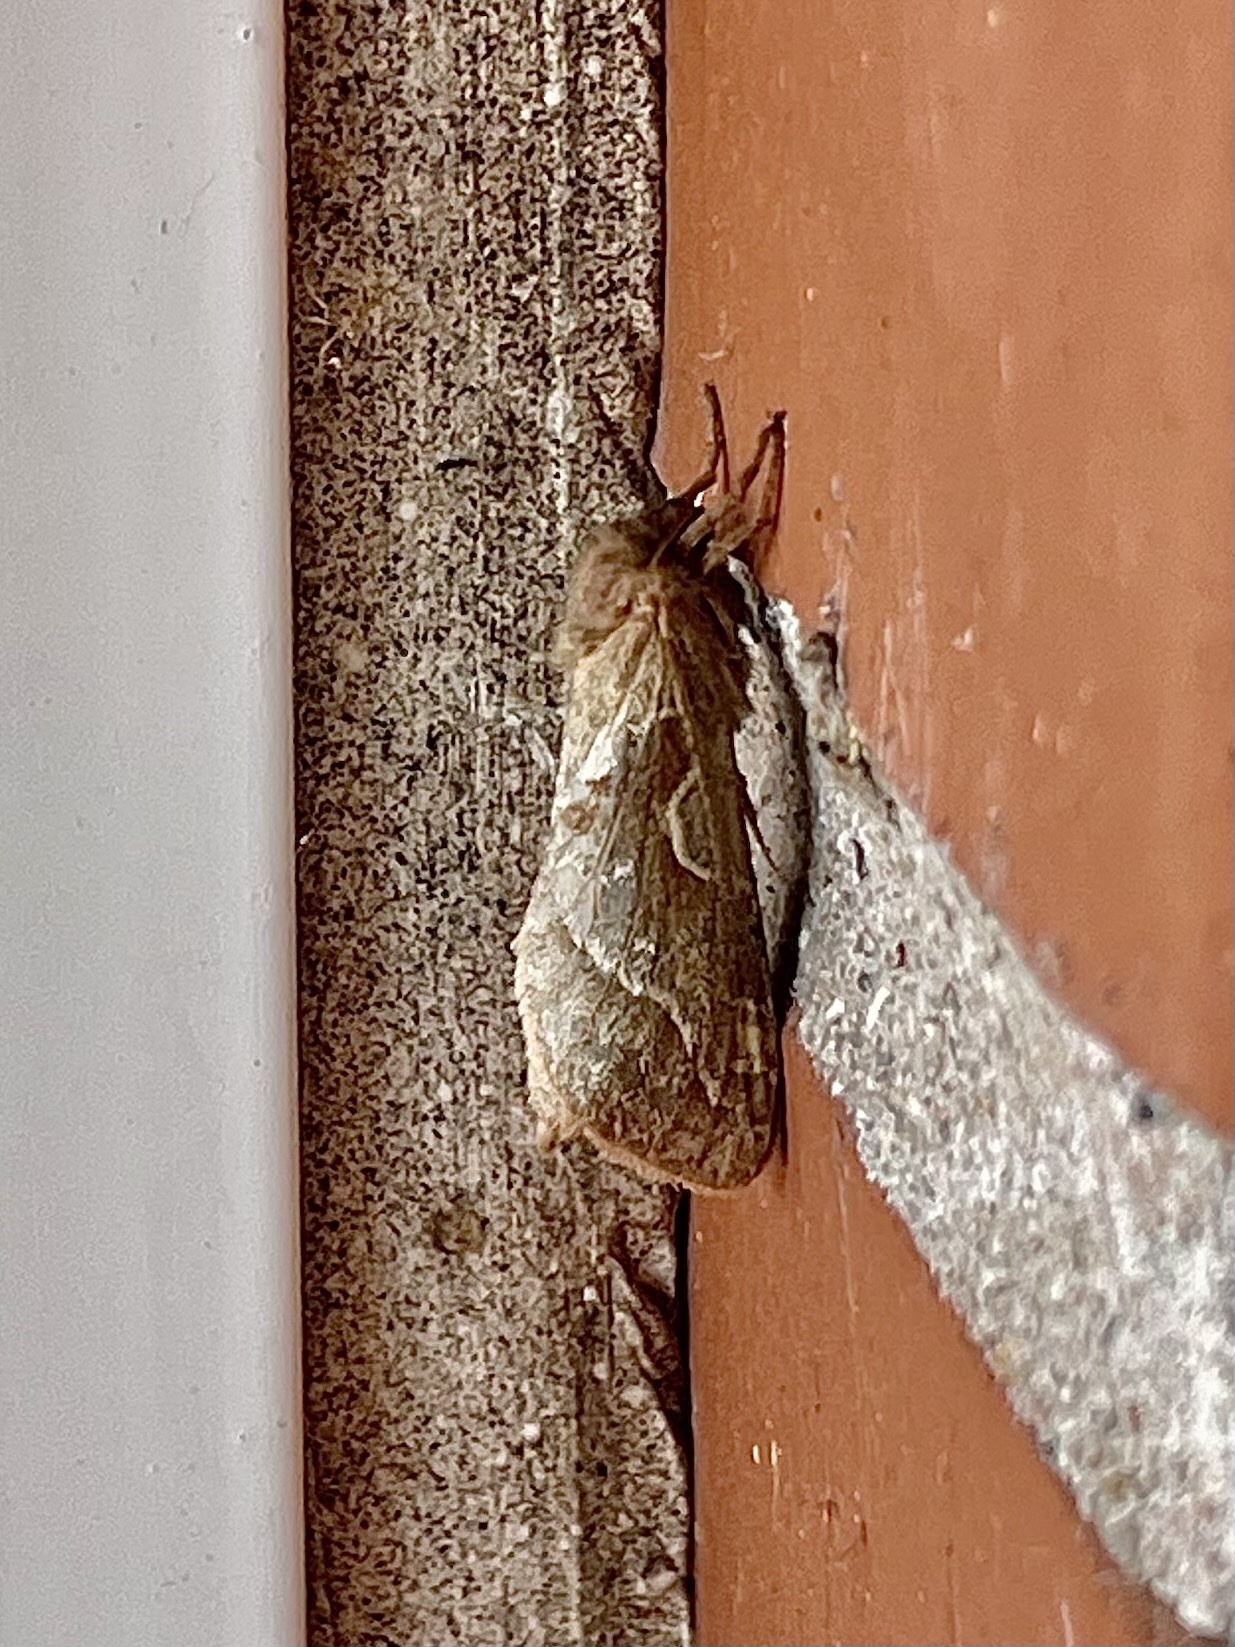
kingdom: Animalia
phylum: Arthropoda
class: Insecta
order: Lepidoptera
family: Hepialidae
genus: Triodia
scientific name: Triodia sylvina
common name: Orange swift
